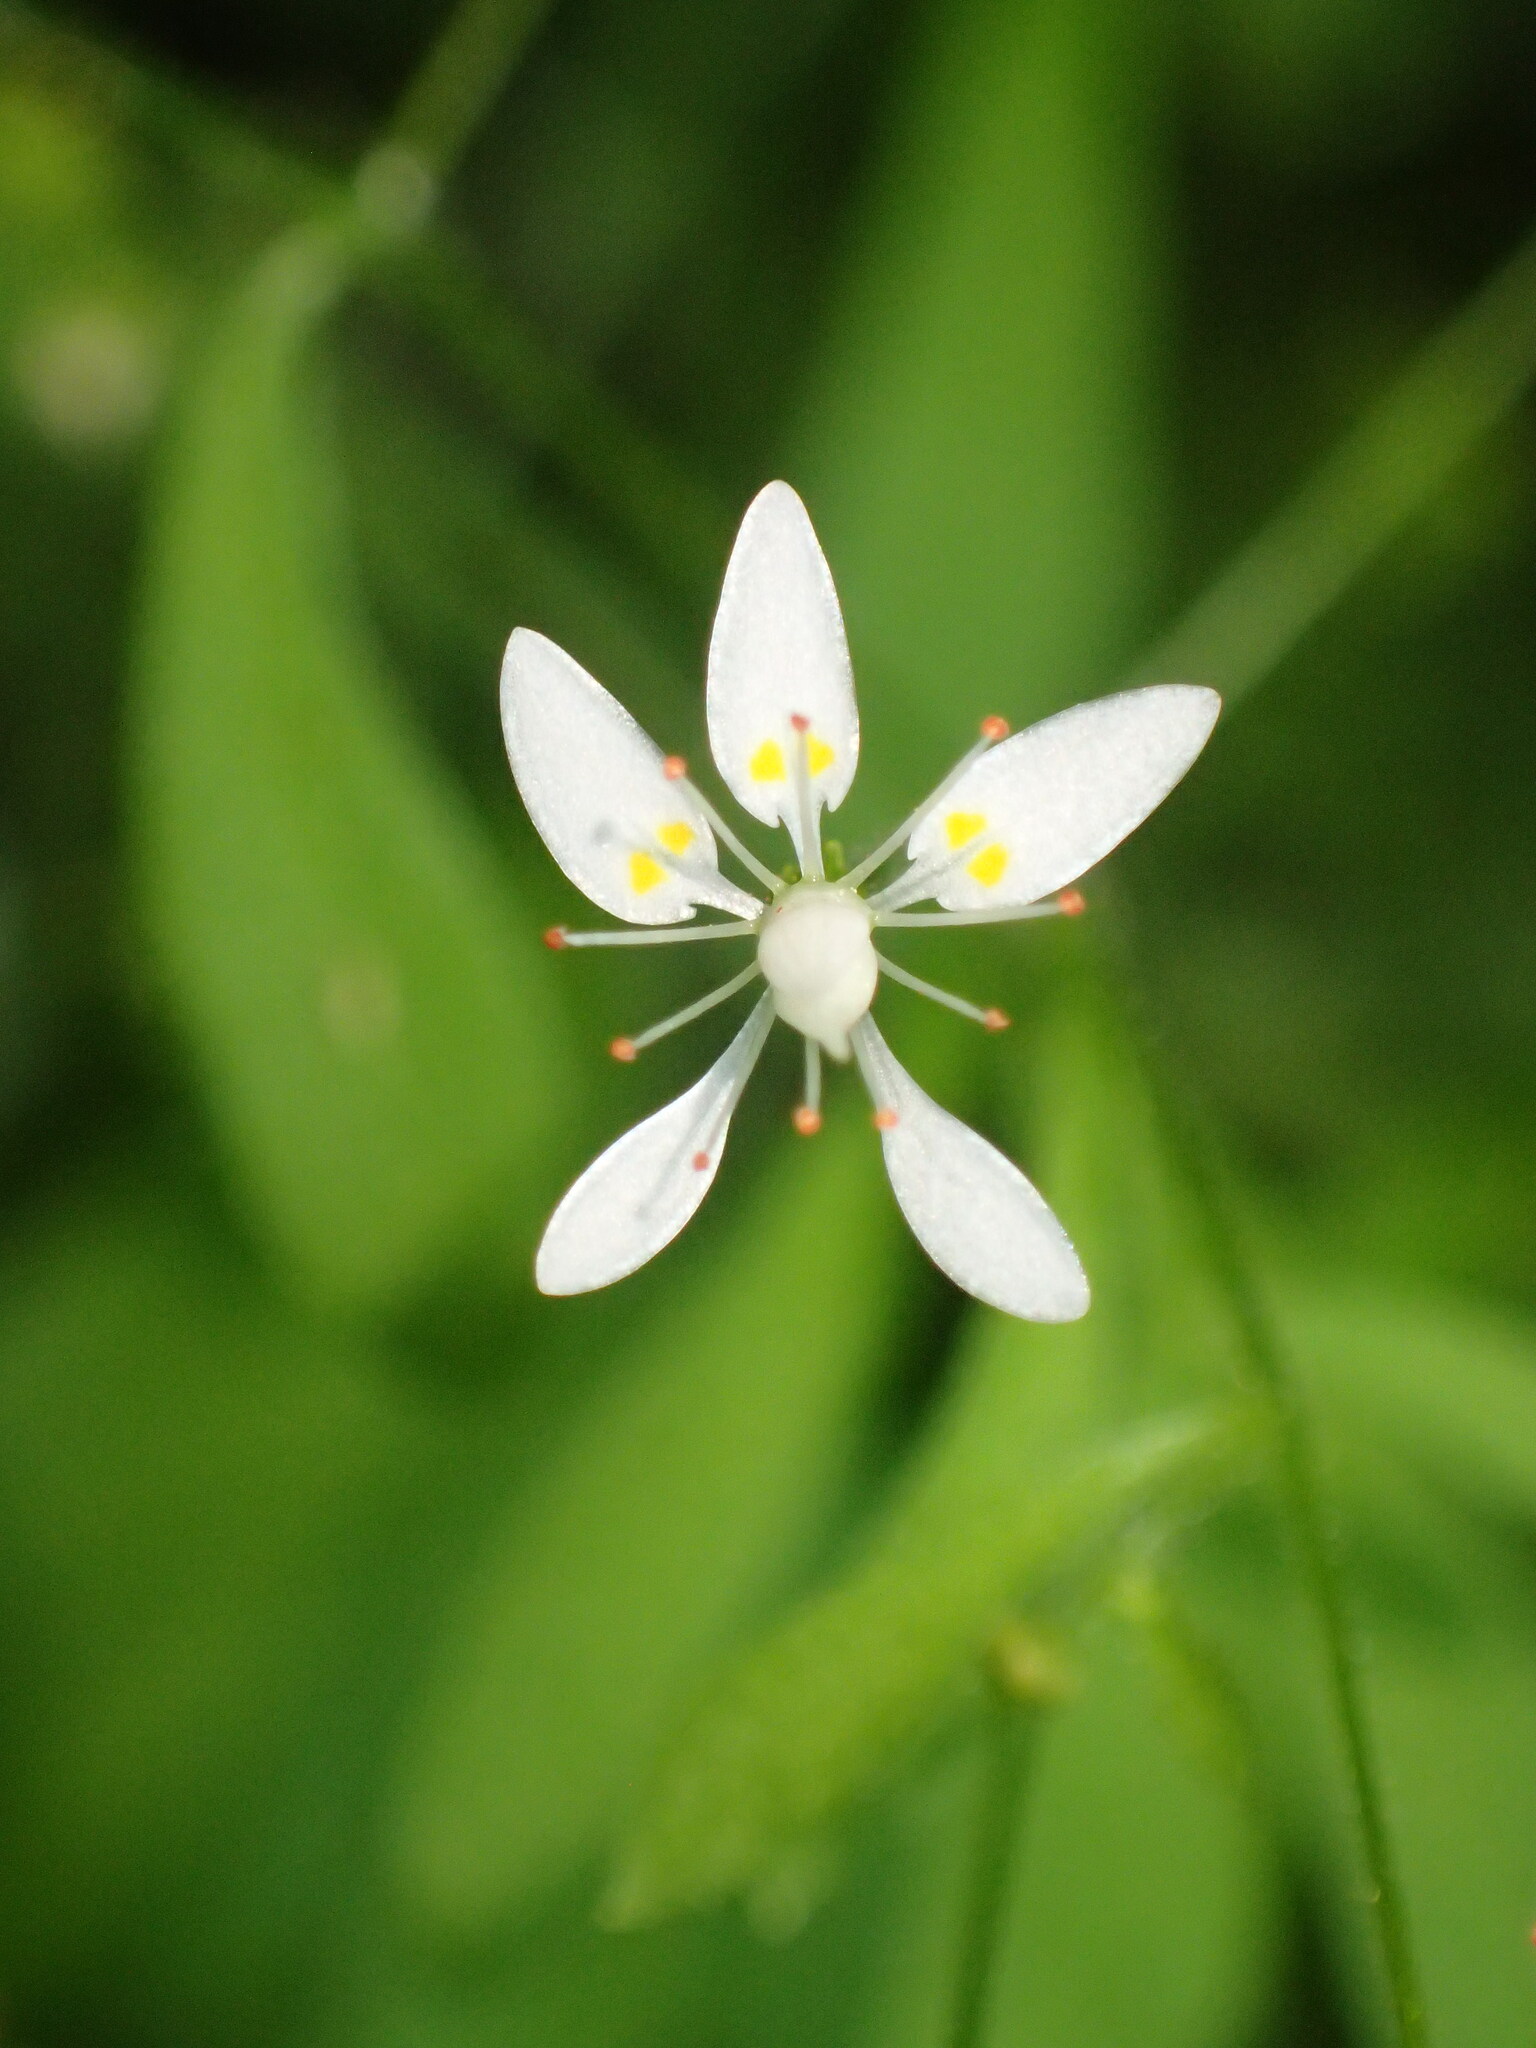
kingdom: Plantae
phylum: Tracheophyta
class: Magnoliopsida
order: Saxifragales
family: Saxifragaceae
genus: Micranthes
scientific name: Micranthes petiolaris
